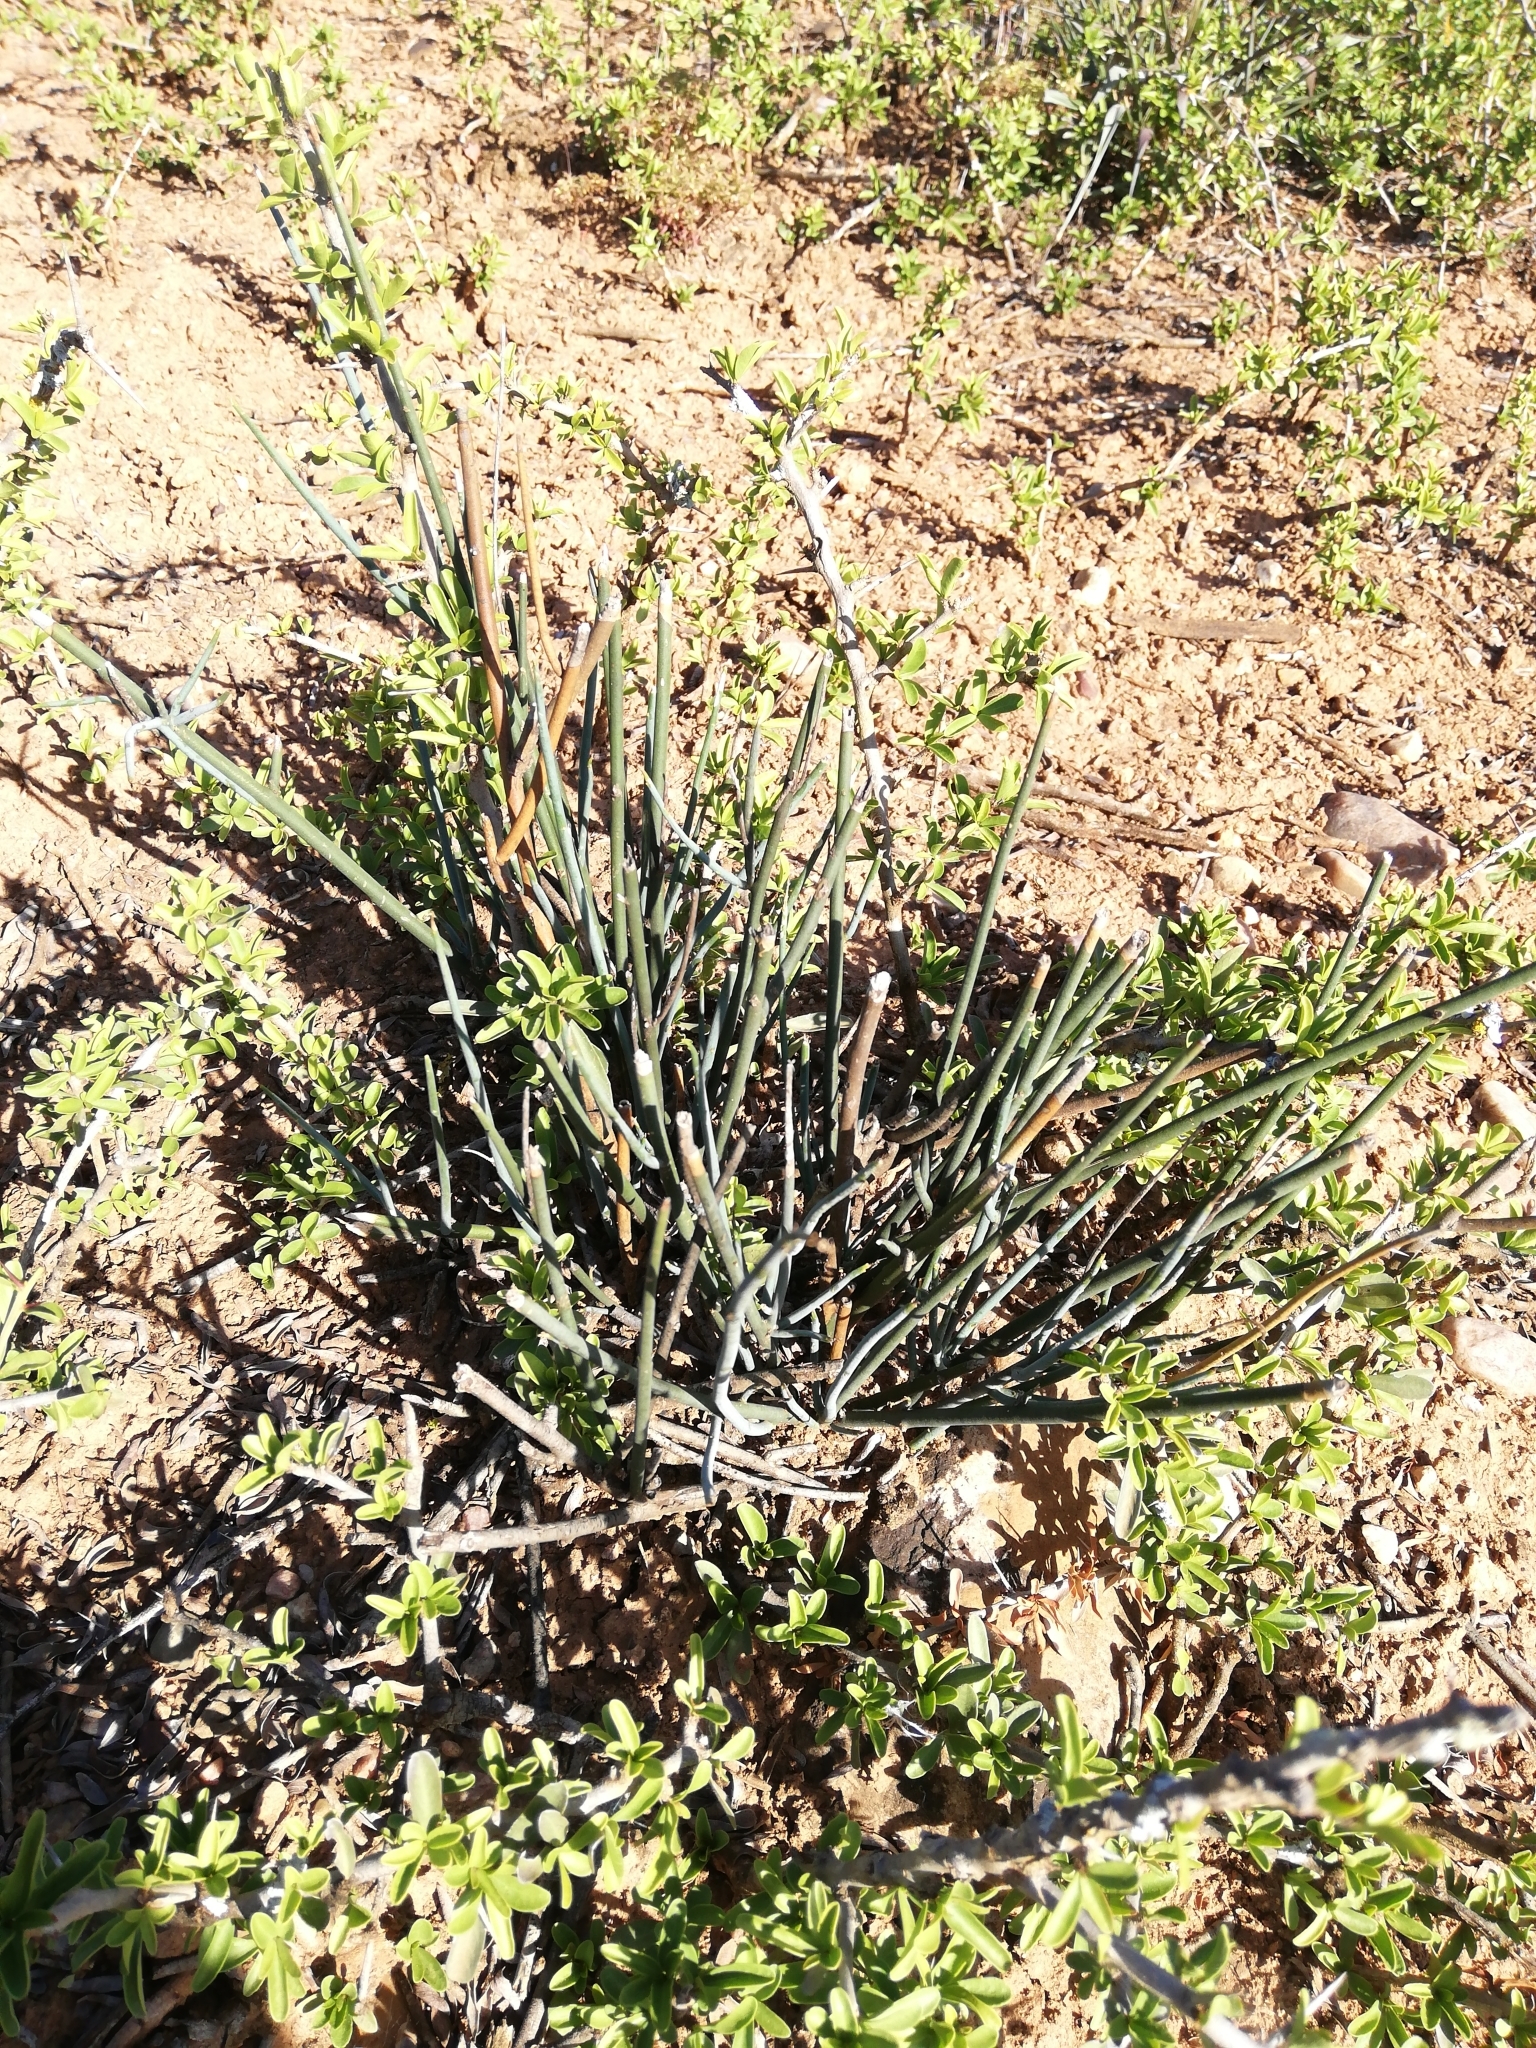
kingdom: Plantae
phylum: Tracheophyta
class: Magnoliopsida
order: Brassicales
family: Capparaceae
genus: Cadaba
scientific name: Cadaba aphylla
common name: Black storm
